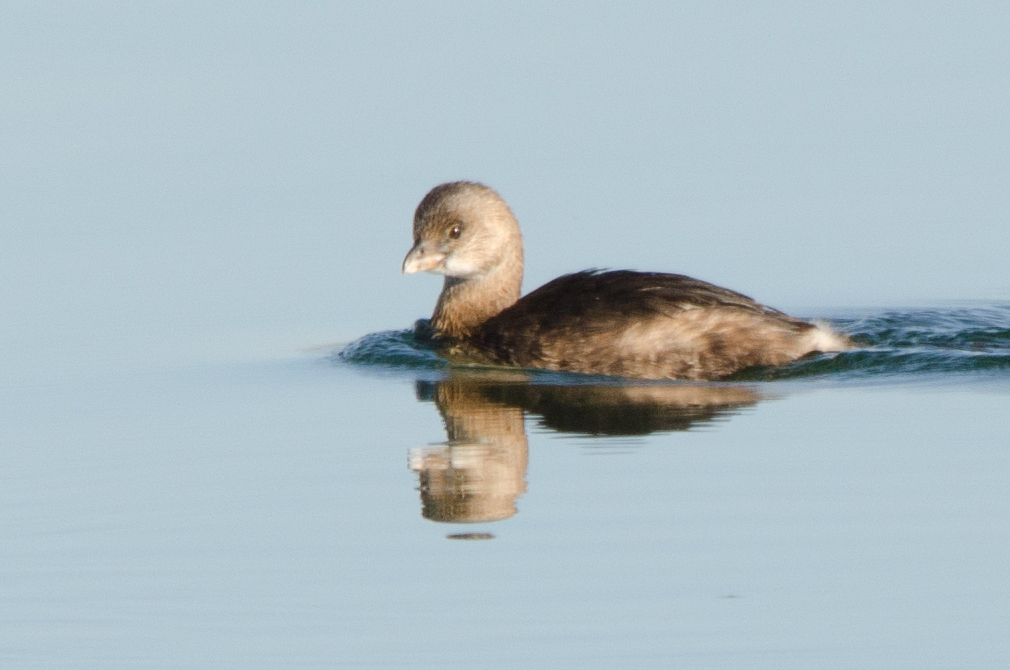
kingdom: Animalia
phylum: Chordata
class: Aves
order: Podicipediformes
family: Podicipedidae
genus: Podilymbus
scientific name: Podilymbus podiceps
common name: Pied-billed grebe
